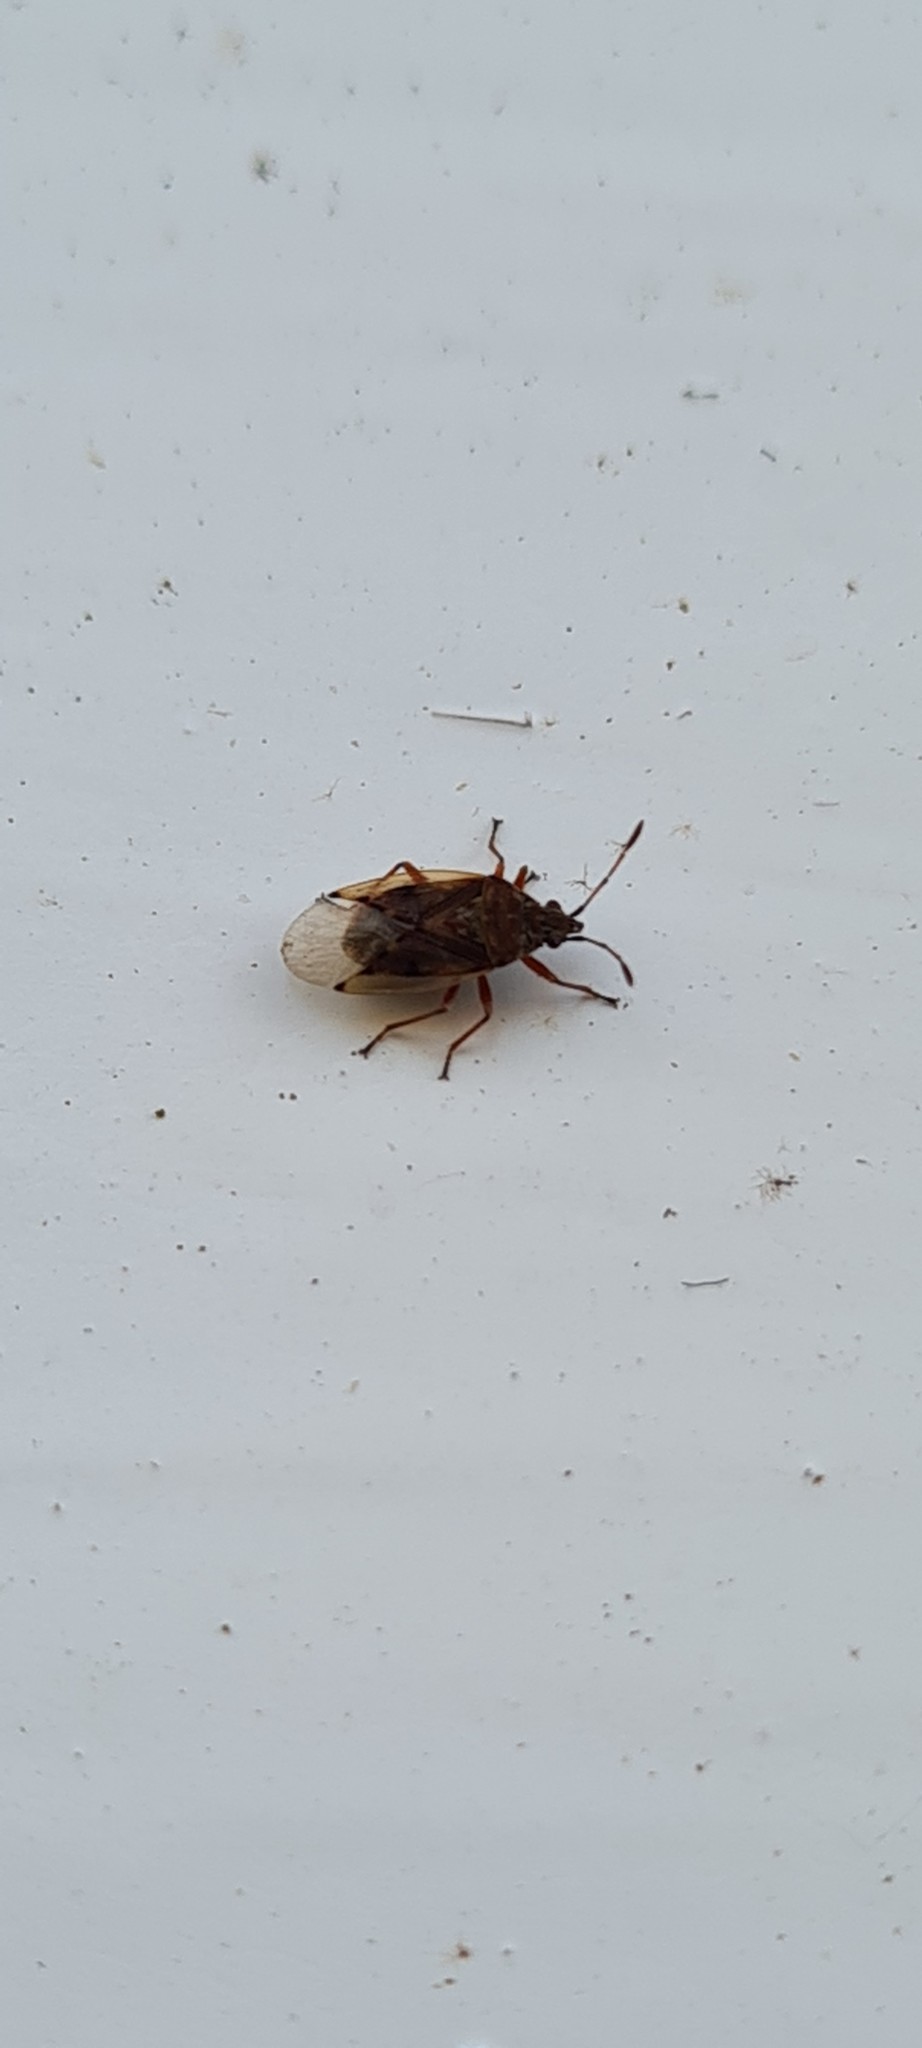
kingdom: Animalia
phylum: Arthropoda
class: Insecta
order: Hemiptera
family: Lygaeidae
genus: Kleidocerys
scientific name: Kleidocerys resedae
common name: Birch catkin bug
